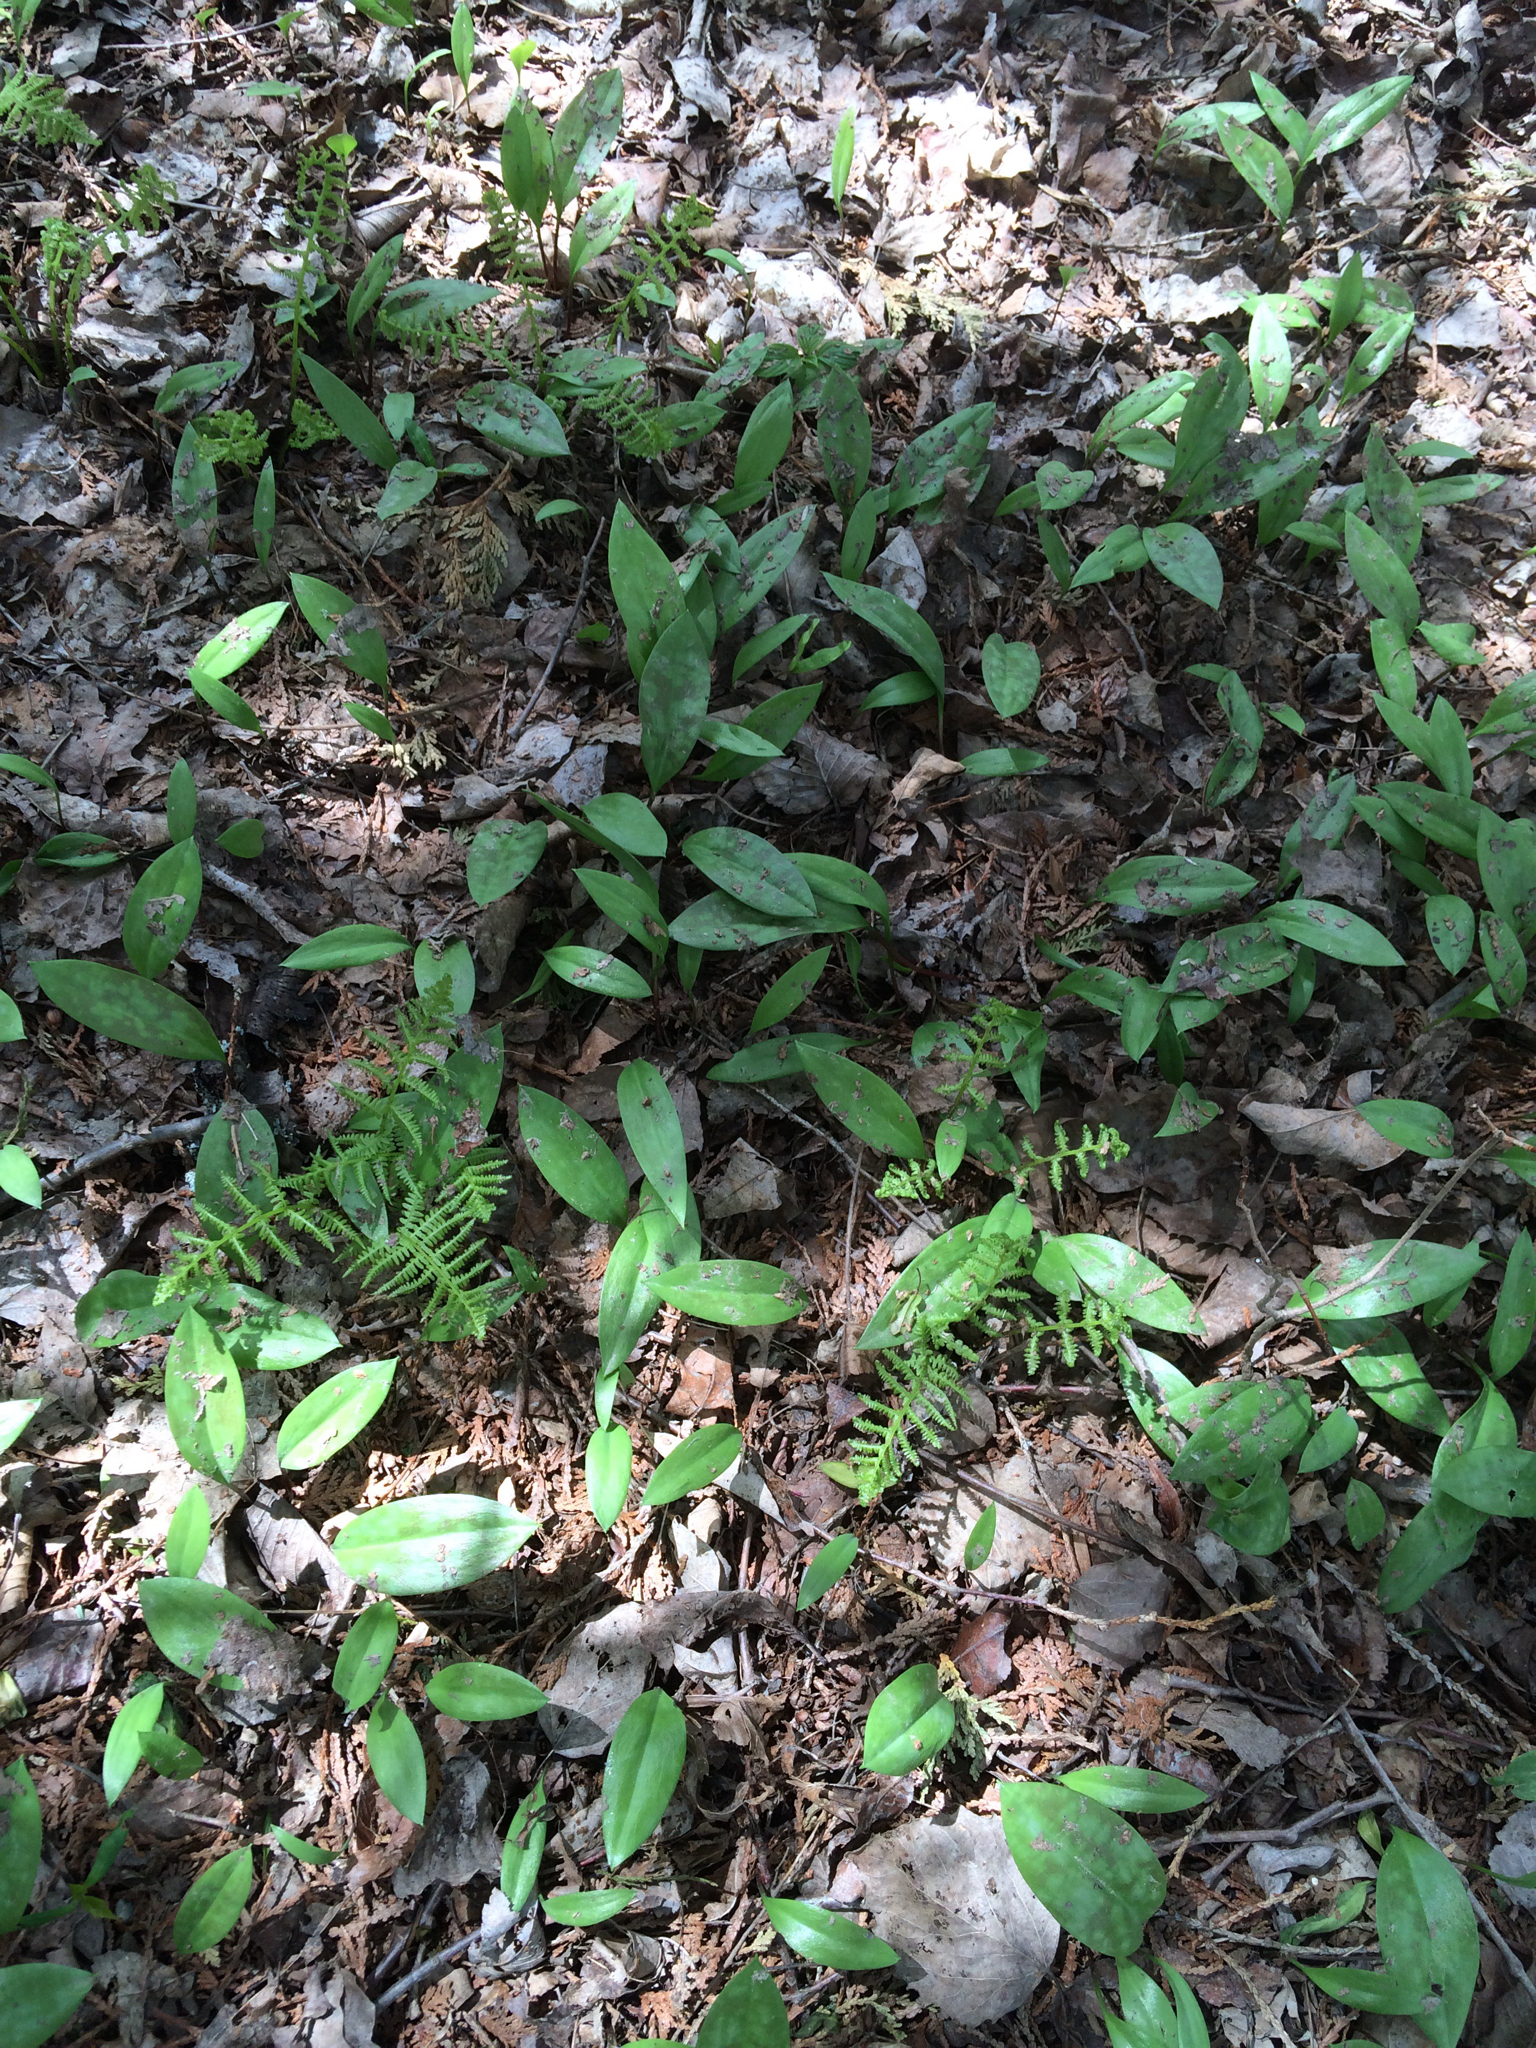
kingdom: Plantae
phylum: Tracheophyta
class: Liliopsida
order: Liliales
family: Liliaceae
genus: Erythronium
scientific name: Erythronium americanum
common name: Yellow adder's-tongue
